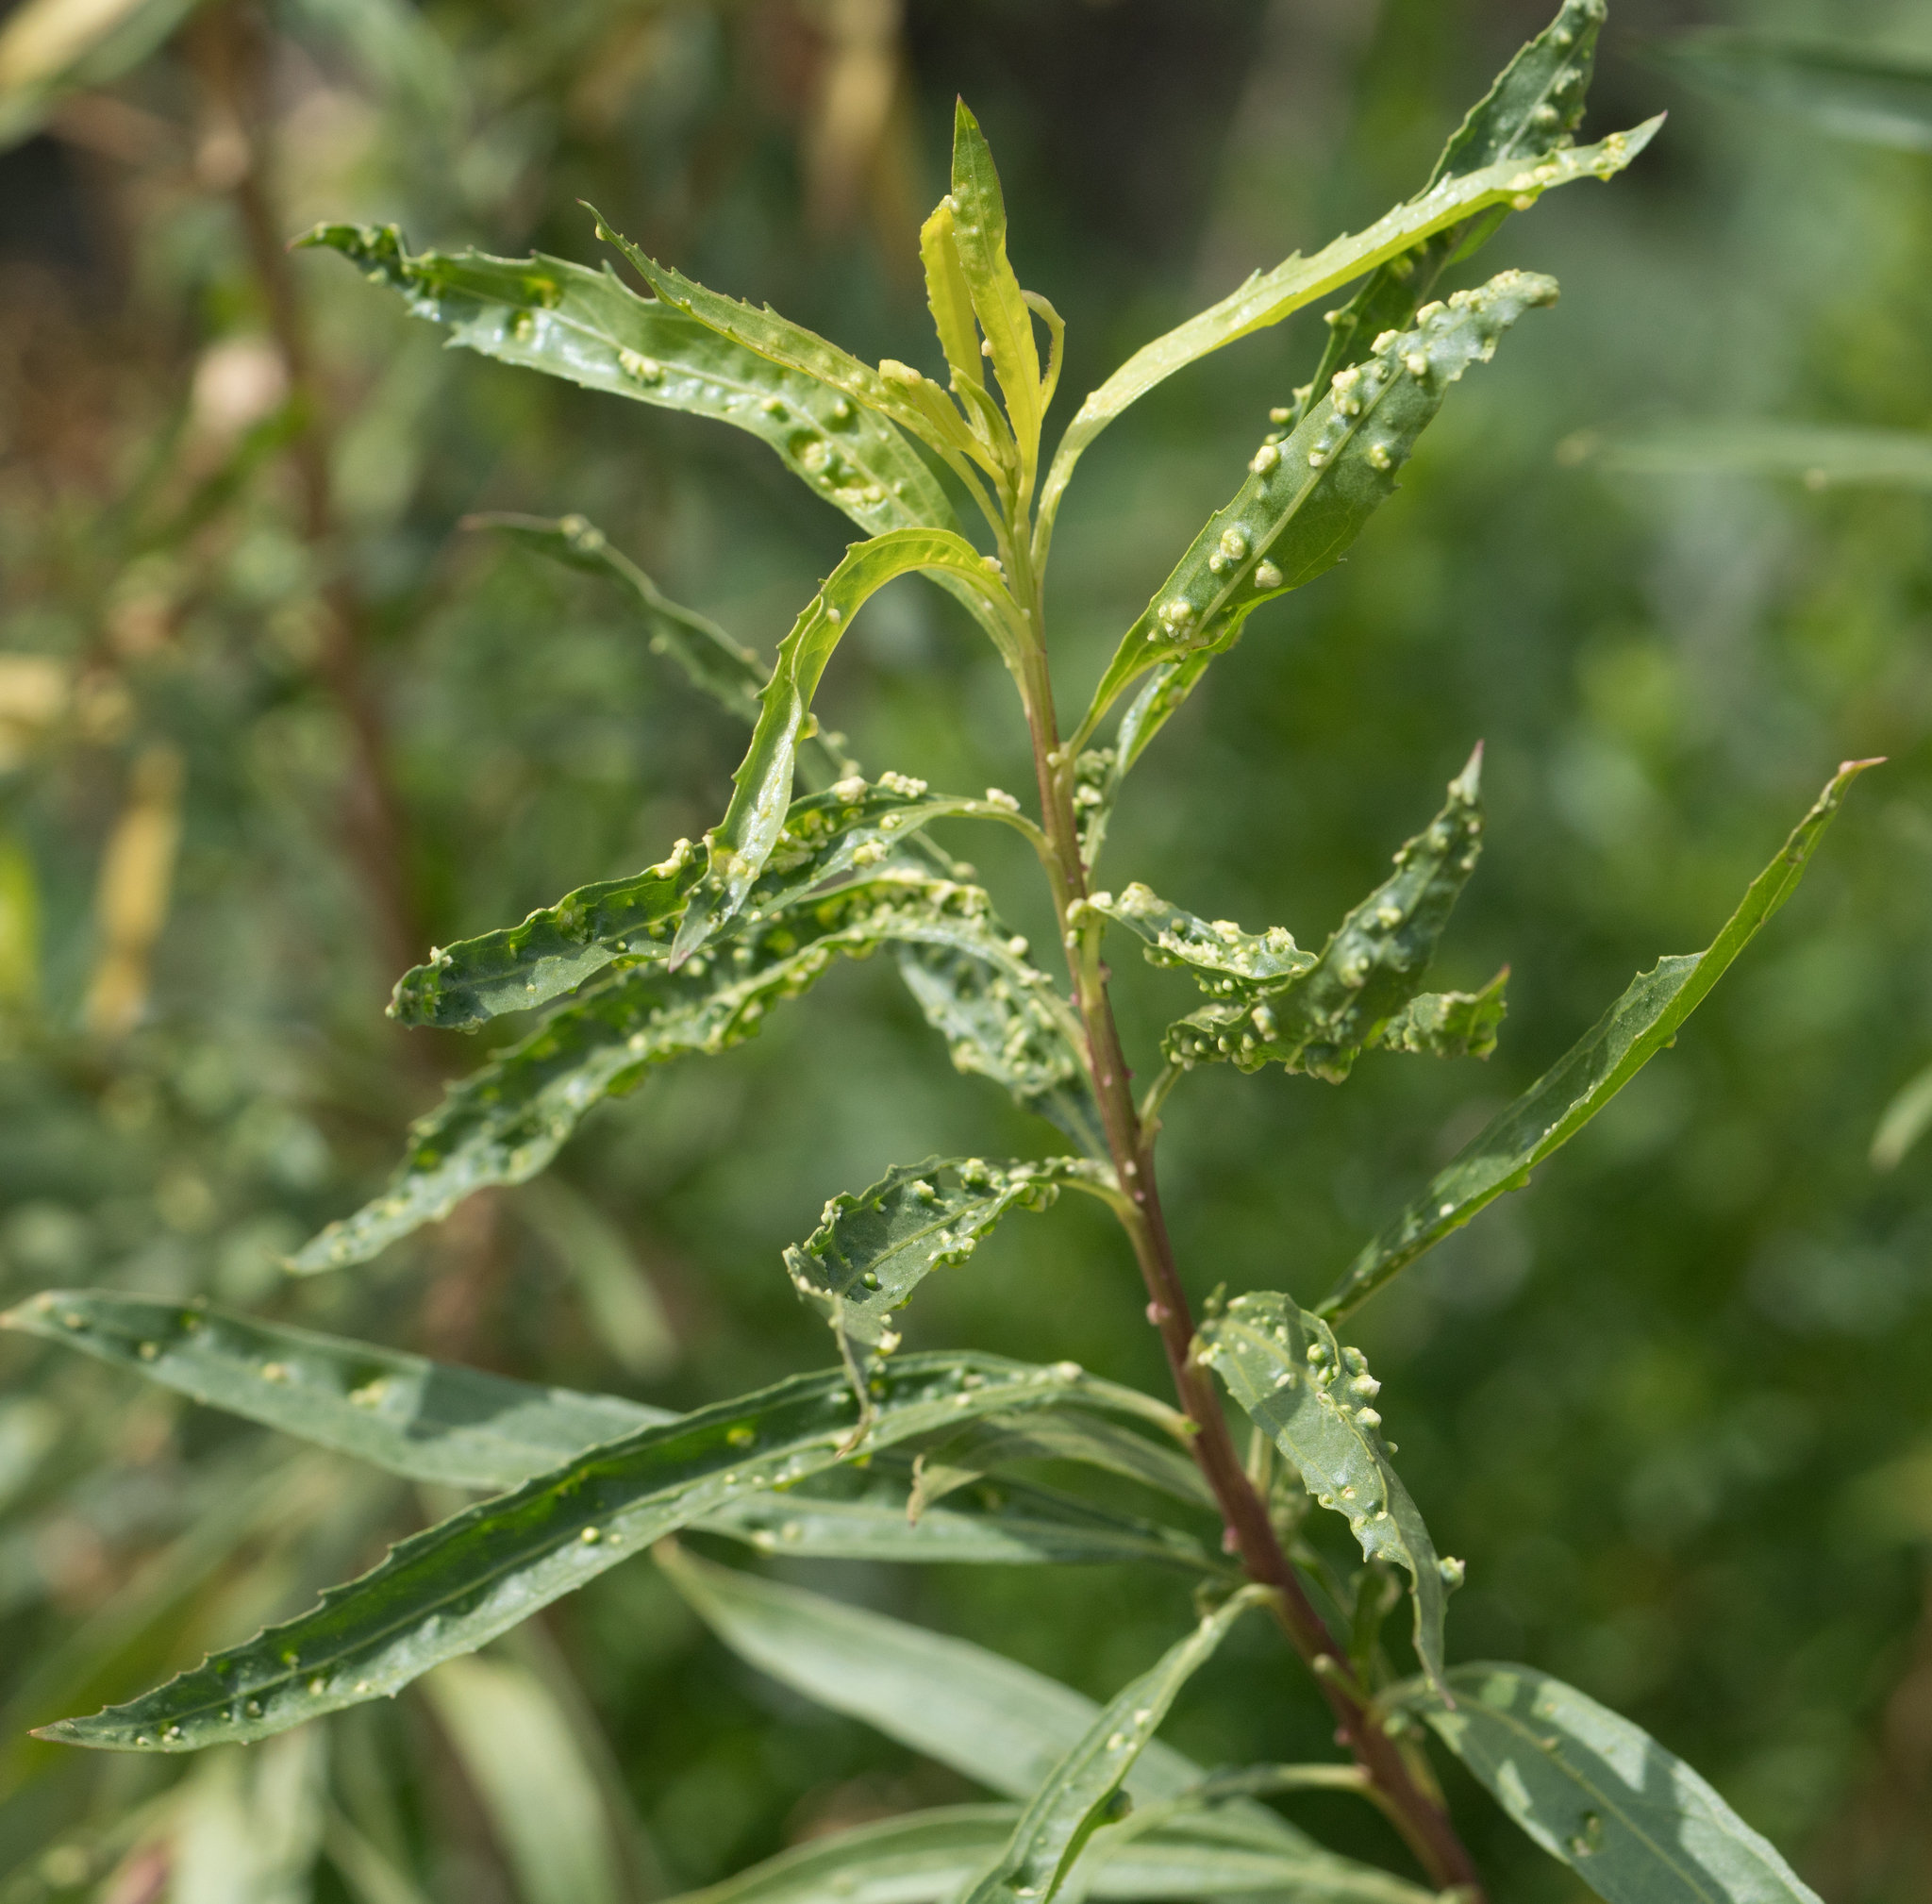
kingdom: Animalia
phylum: Arthropoda
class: Arachnida
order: Trombidiformes
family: Eriophyidae
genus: Aceria
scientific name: Aceria
